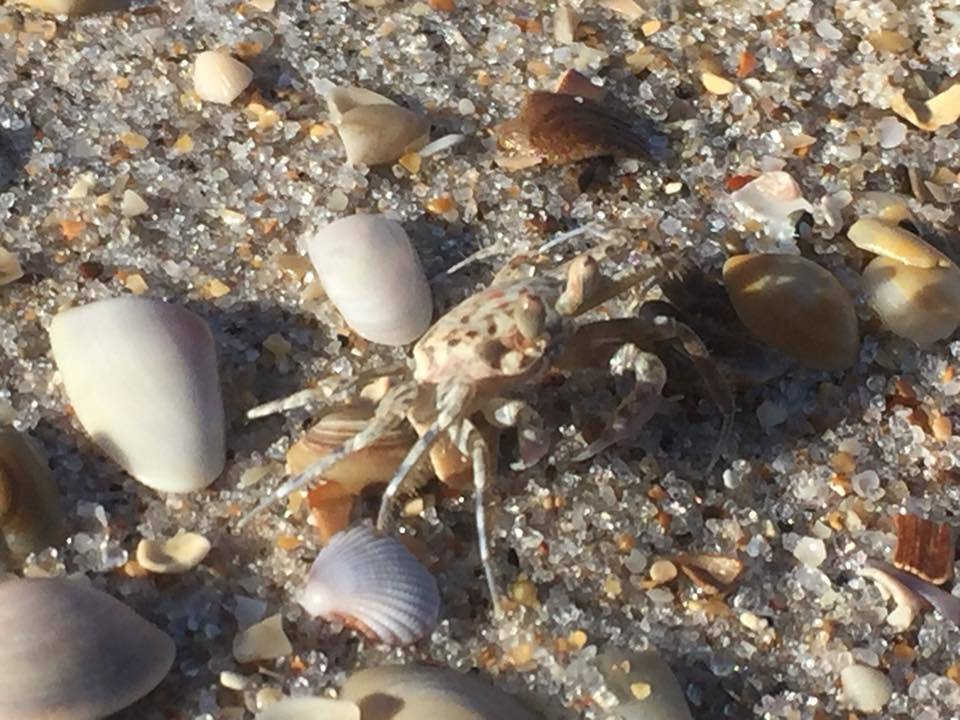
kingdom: Animalia
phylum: Arthropoda
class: Malacostraca
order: Decapoda
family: Ocypodidae
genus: Ocypode
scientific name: Ocypode quadrata
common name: Ghost crab
